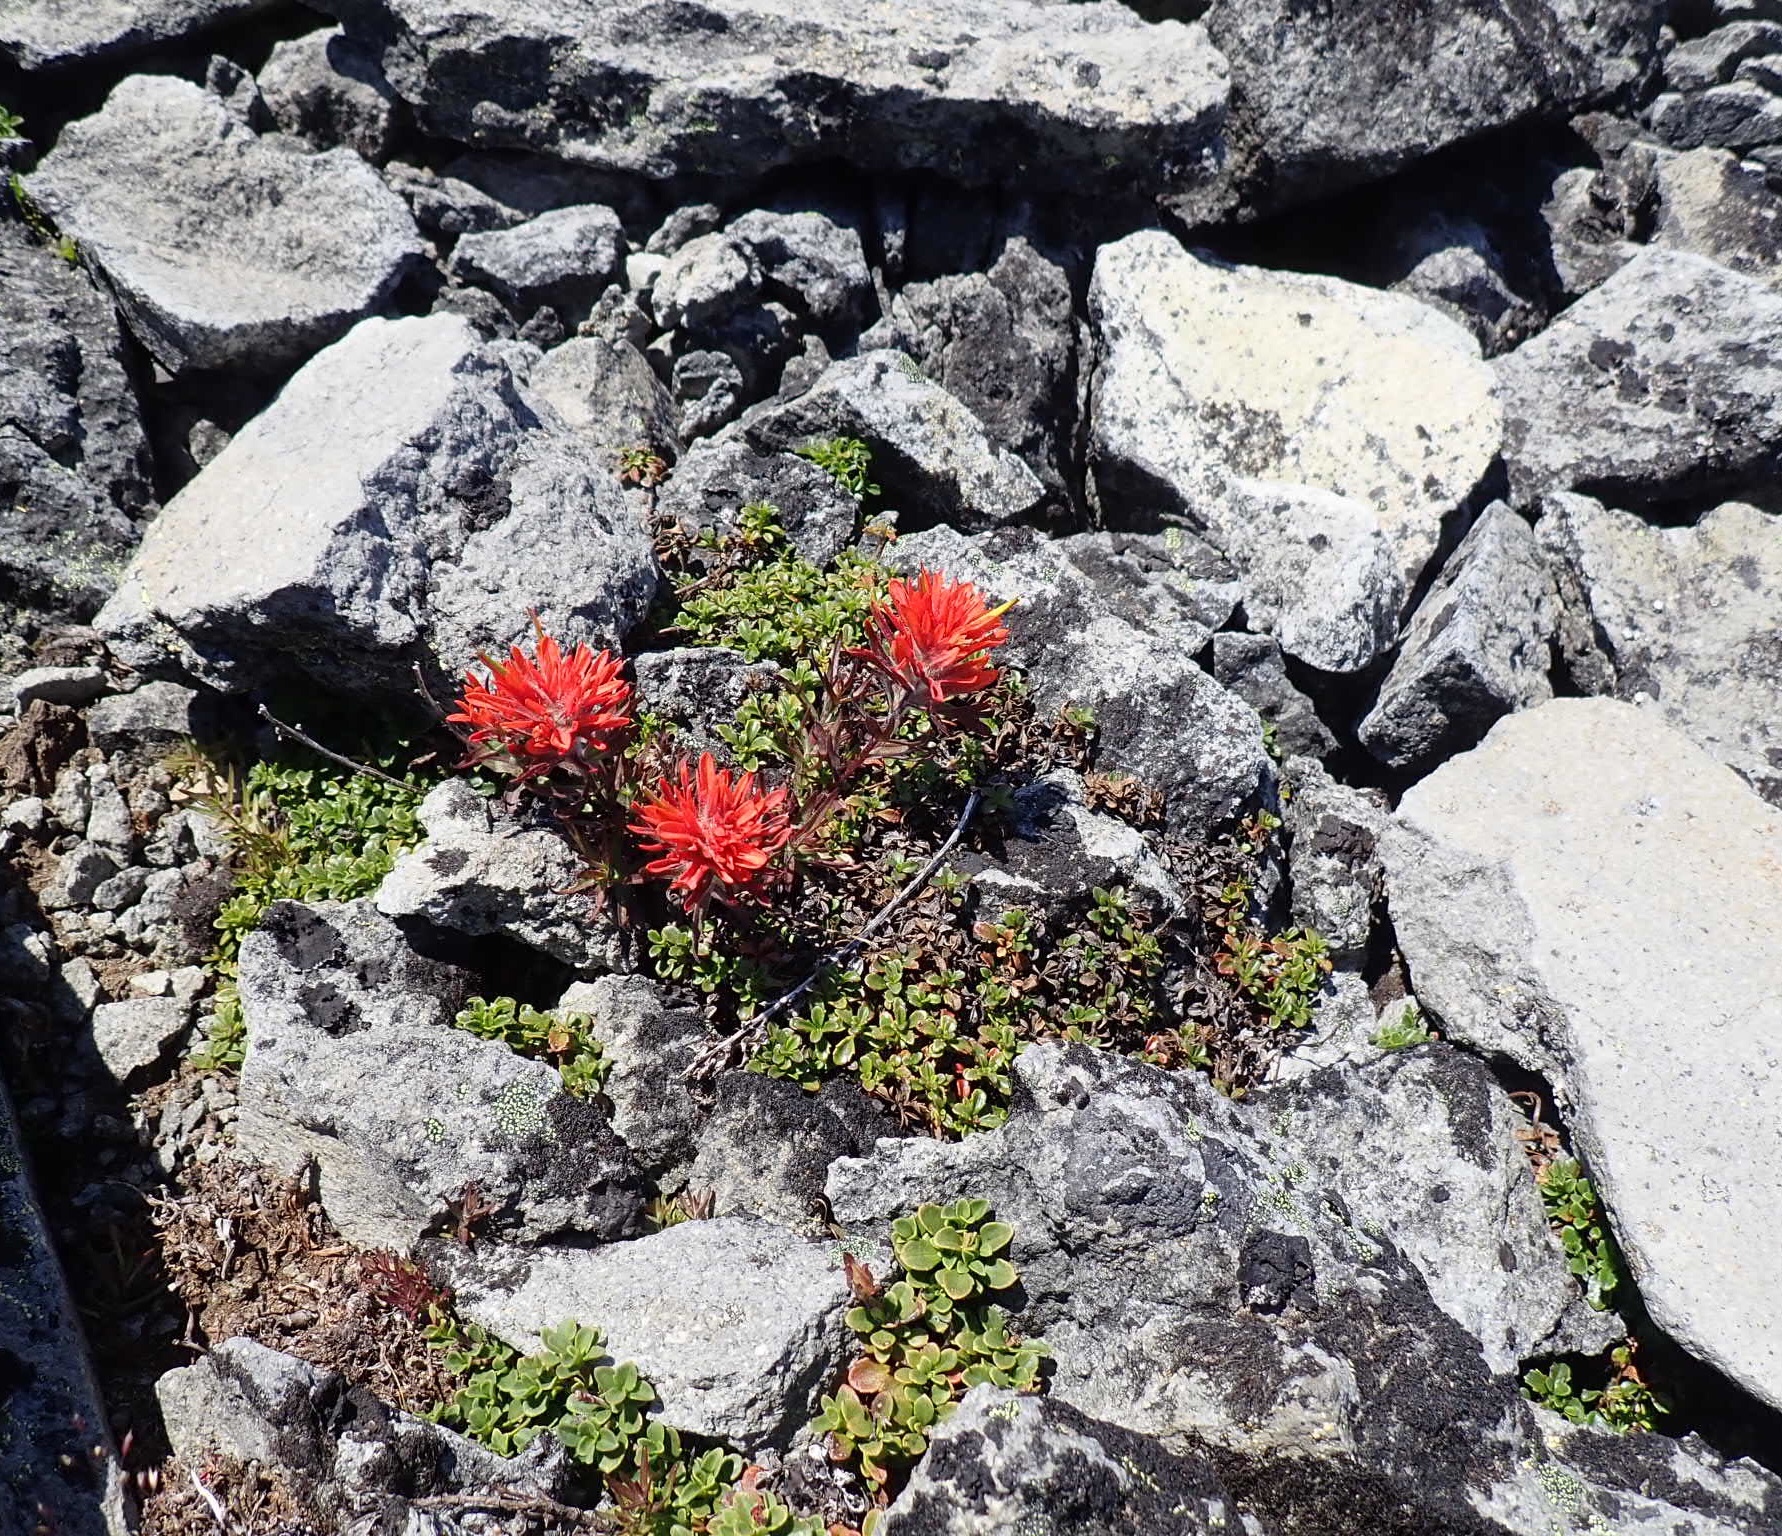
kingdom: Plantae
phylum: Tracheophyta
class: Magnoliopsida
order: Lamiales
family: Orobanchaceae
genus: Castilleja
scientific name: Castilleja rupicola
